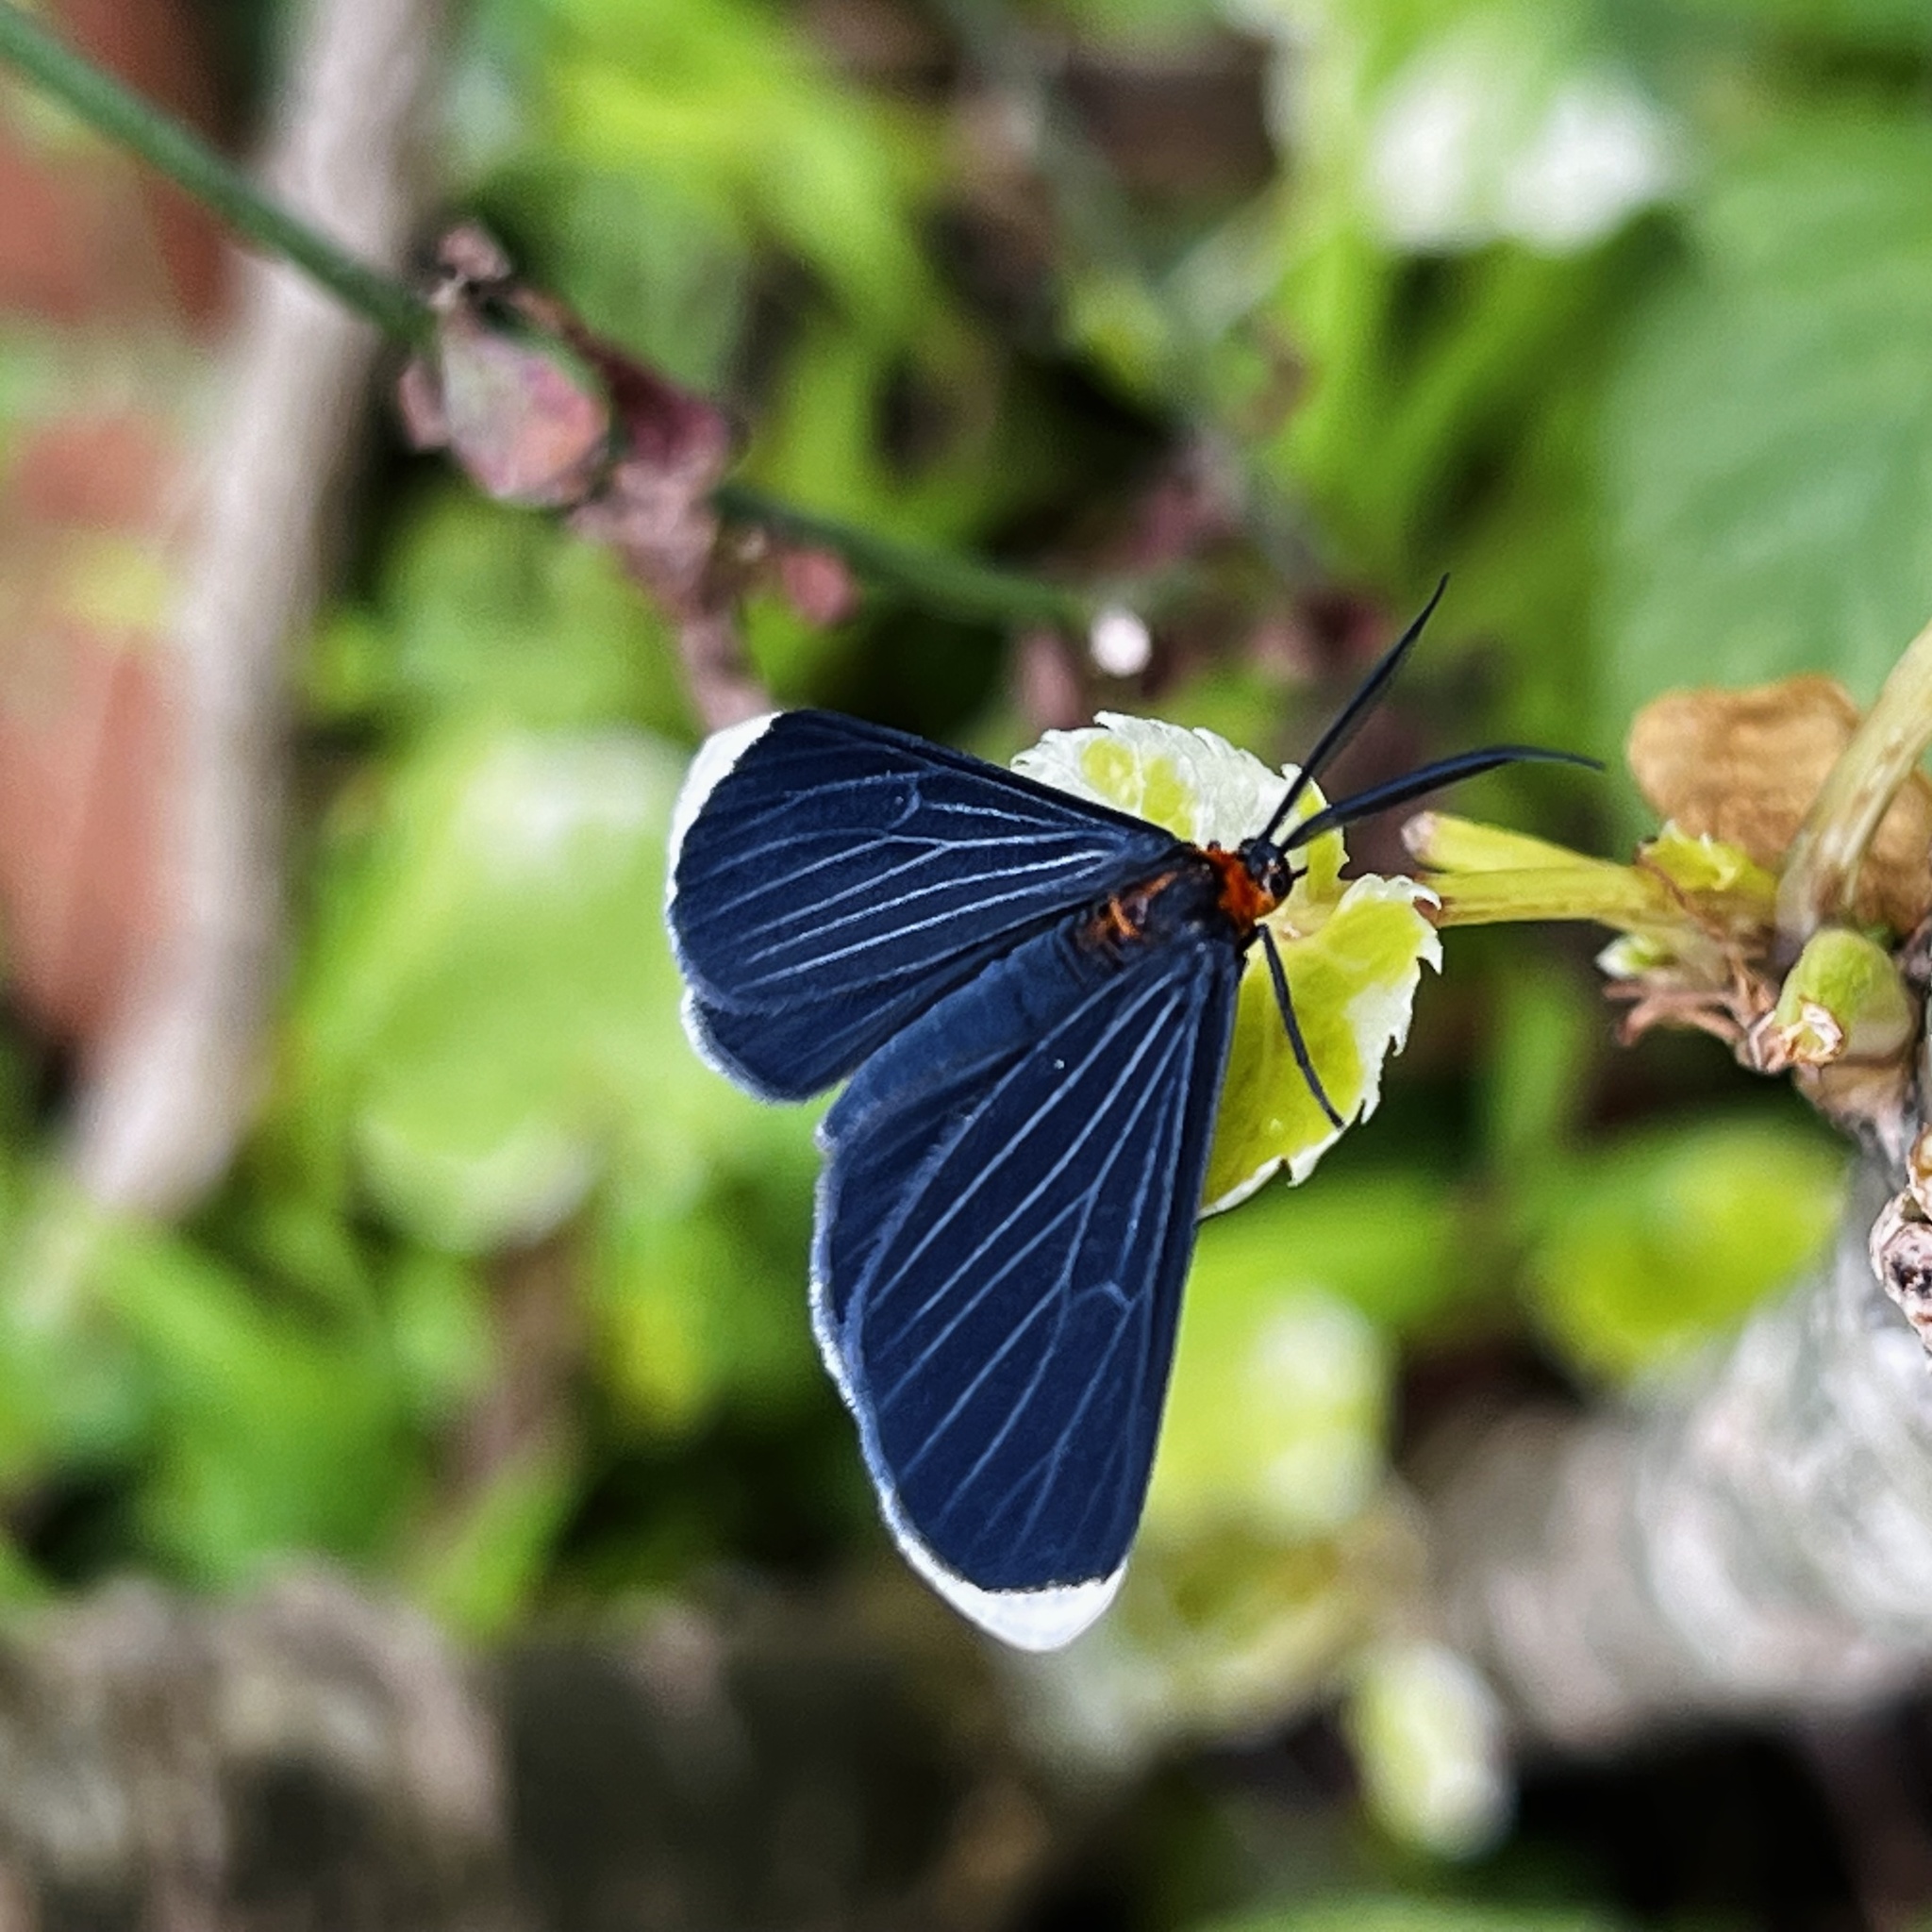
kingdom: Animalia
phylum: Arthropoda
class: Insecta
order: Lepidoptera
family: Geometridae
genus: Melanchroia
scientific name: Melanchroia chephise
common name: White-tipped black
